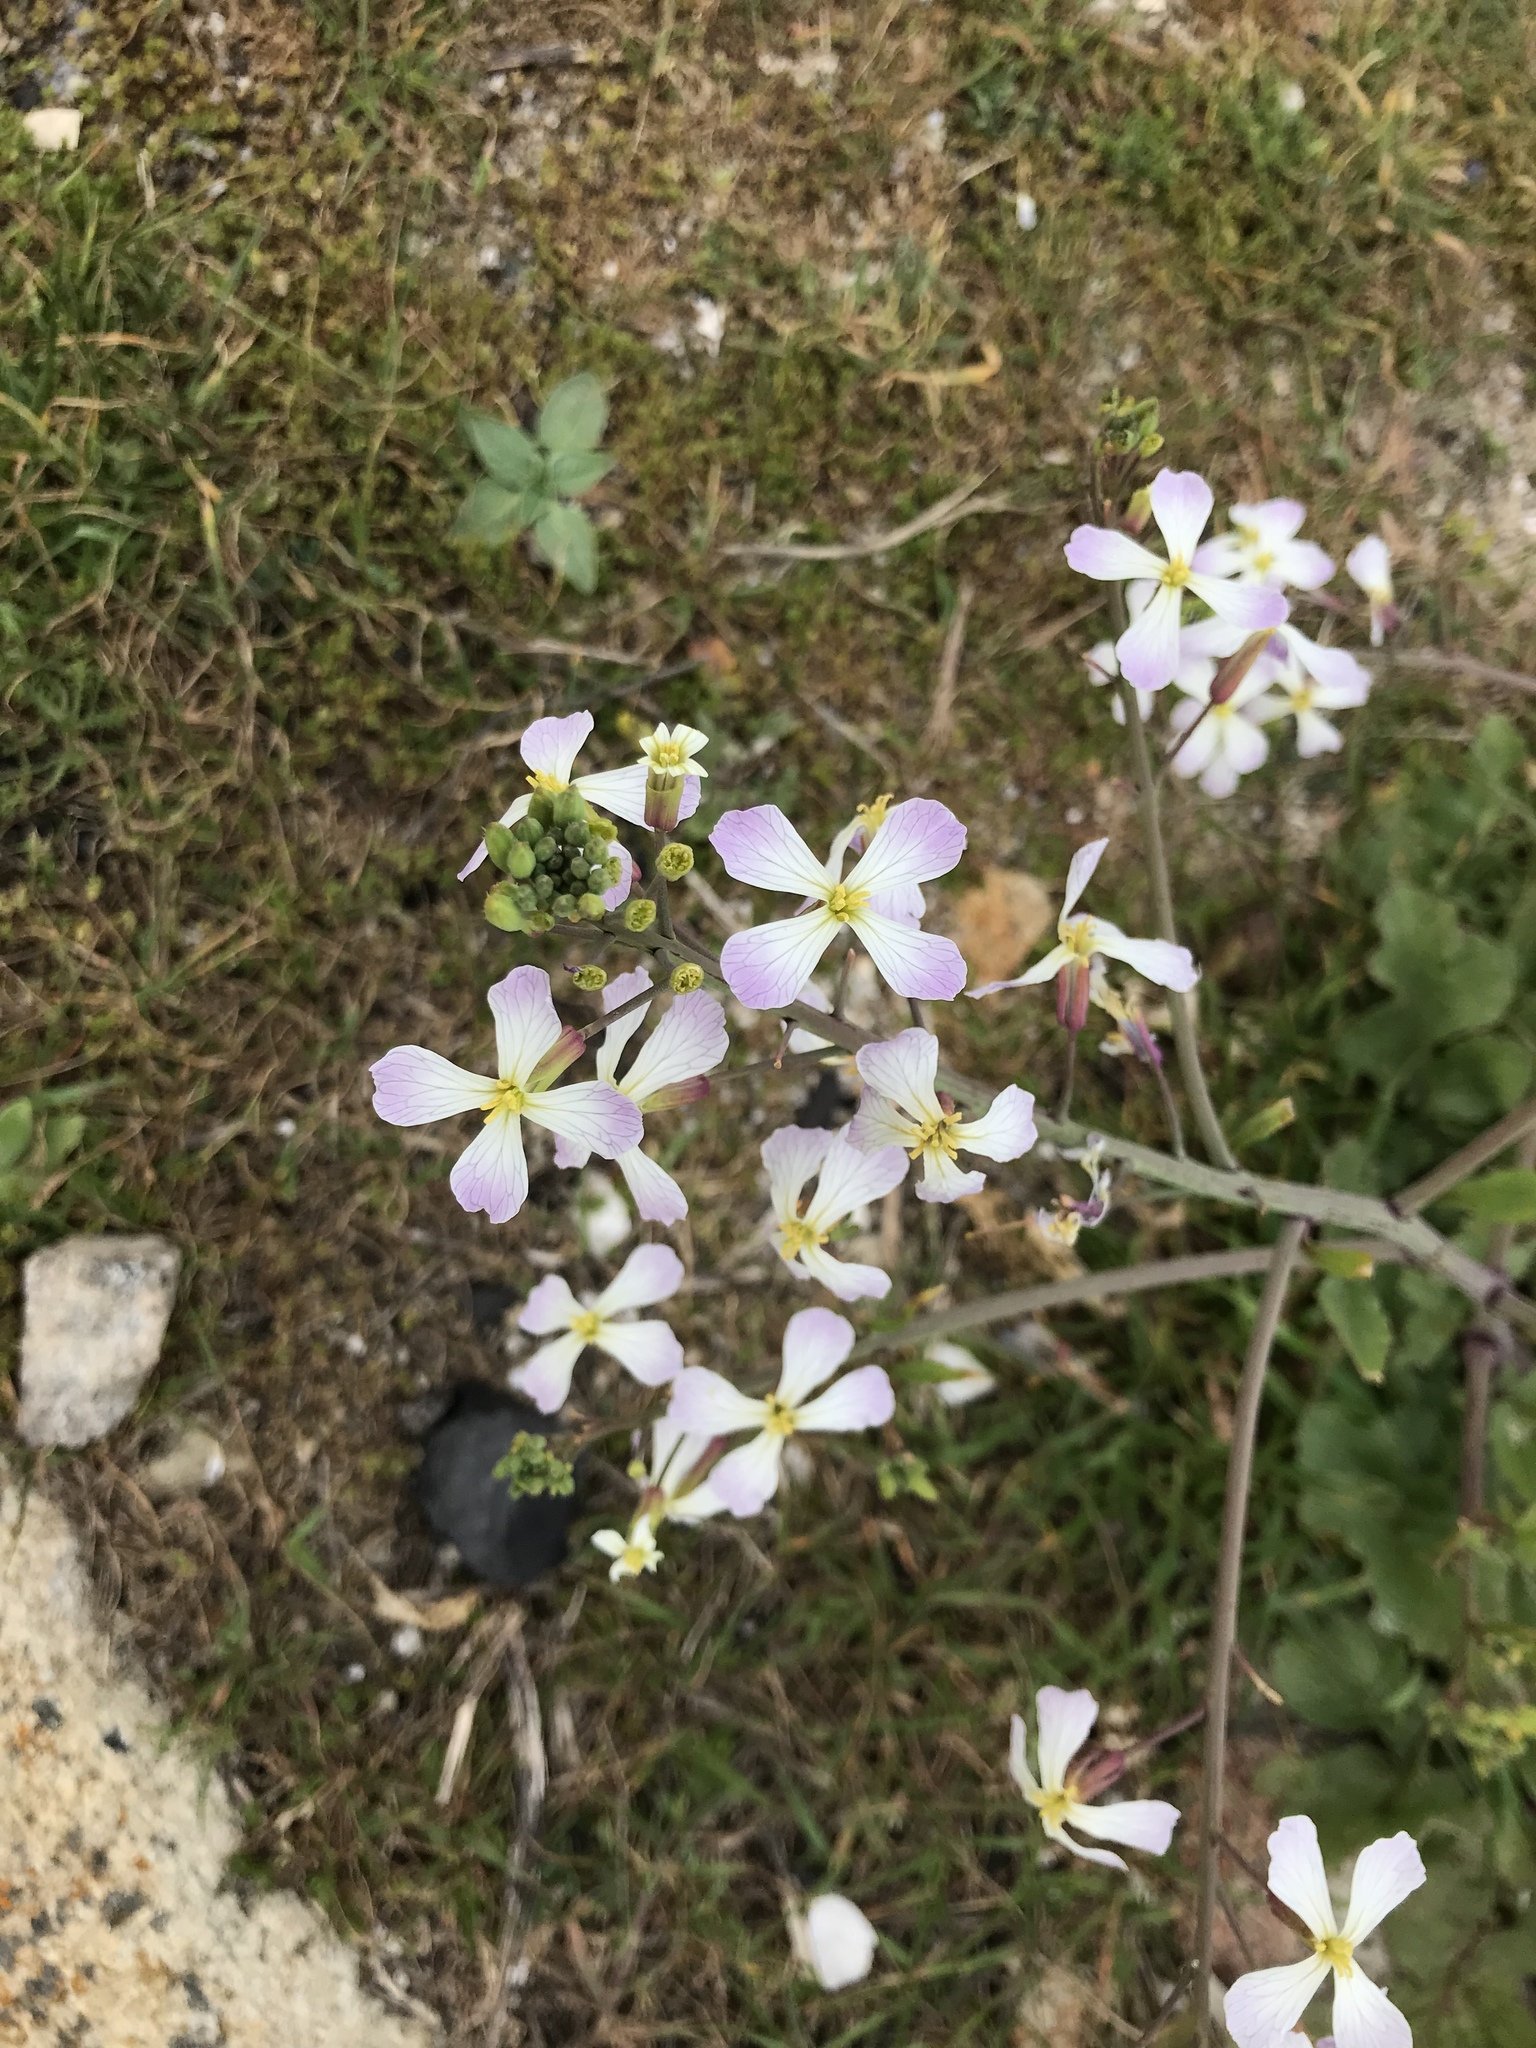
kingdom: Plantae
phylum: Tracheophyta
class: Magnoliopsida
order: Brassicales
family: Brassicaceae
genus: Raphanus
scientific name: Raphanus sativus
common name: Cultivated radish
